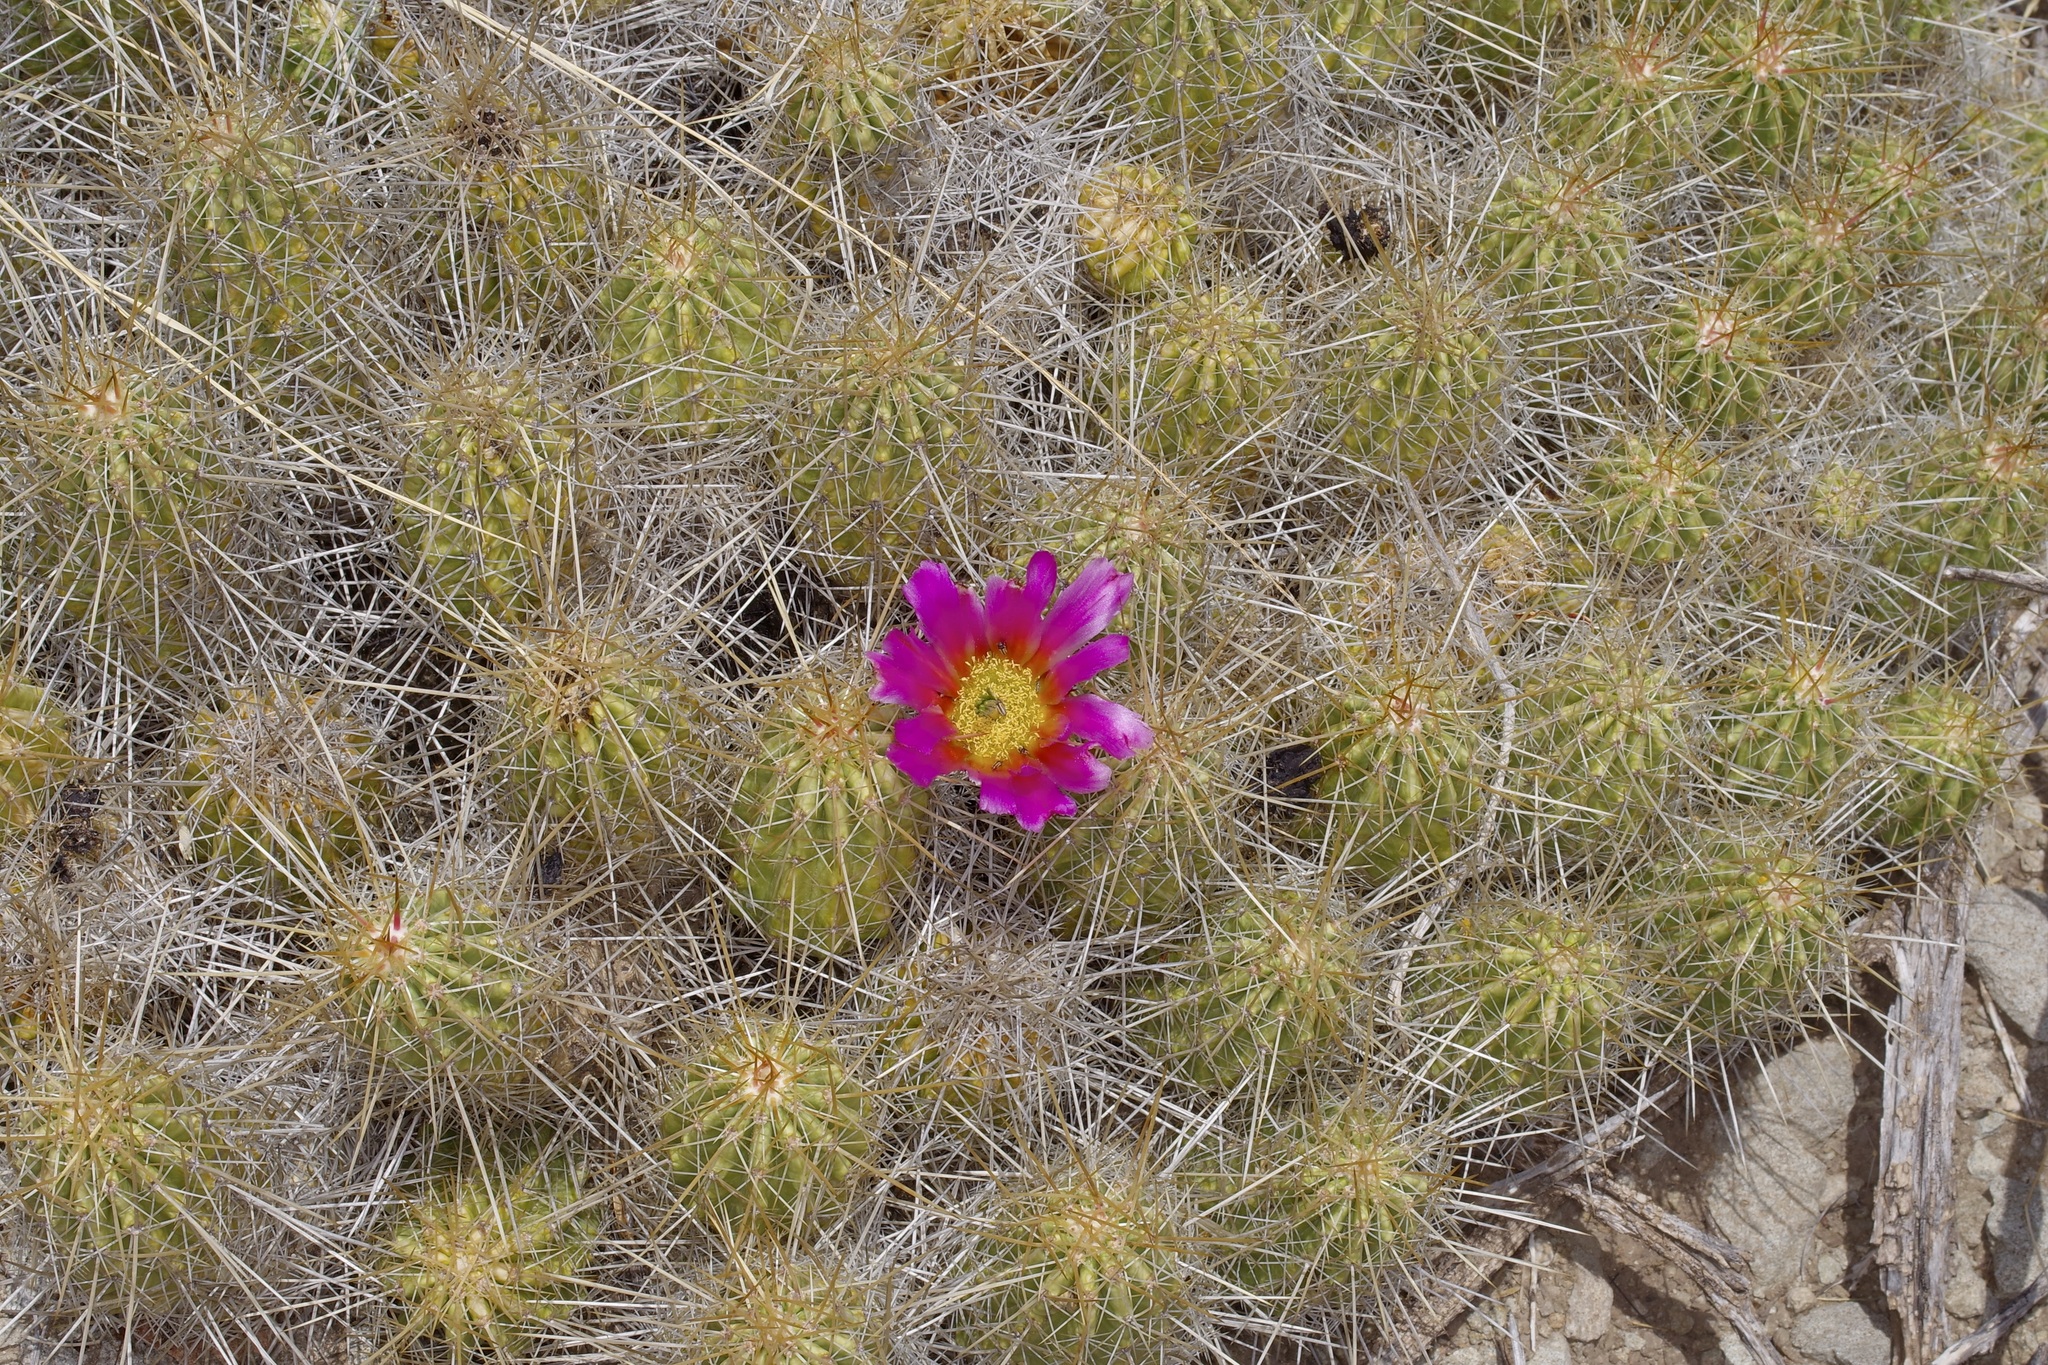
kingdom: Plantae
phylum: Tracheophyta
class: Magnoliopsida
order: Caryophyllales
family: Cactaceae
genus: Echinocereus
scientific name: Echinocereus stramineus
